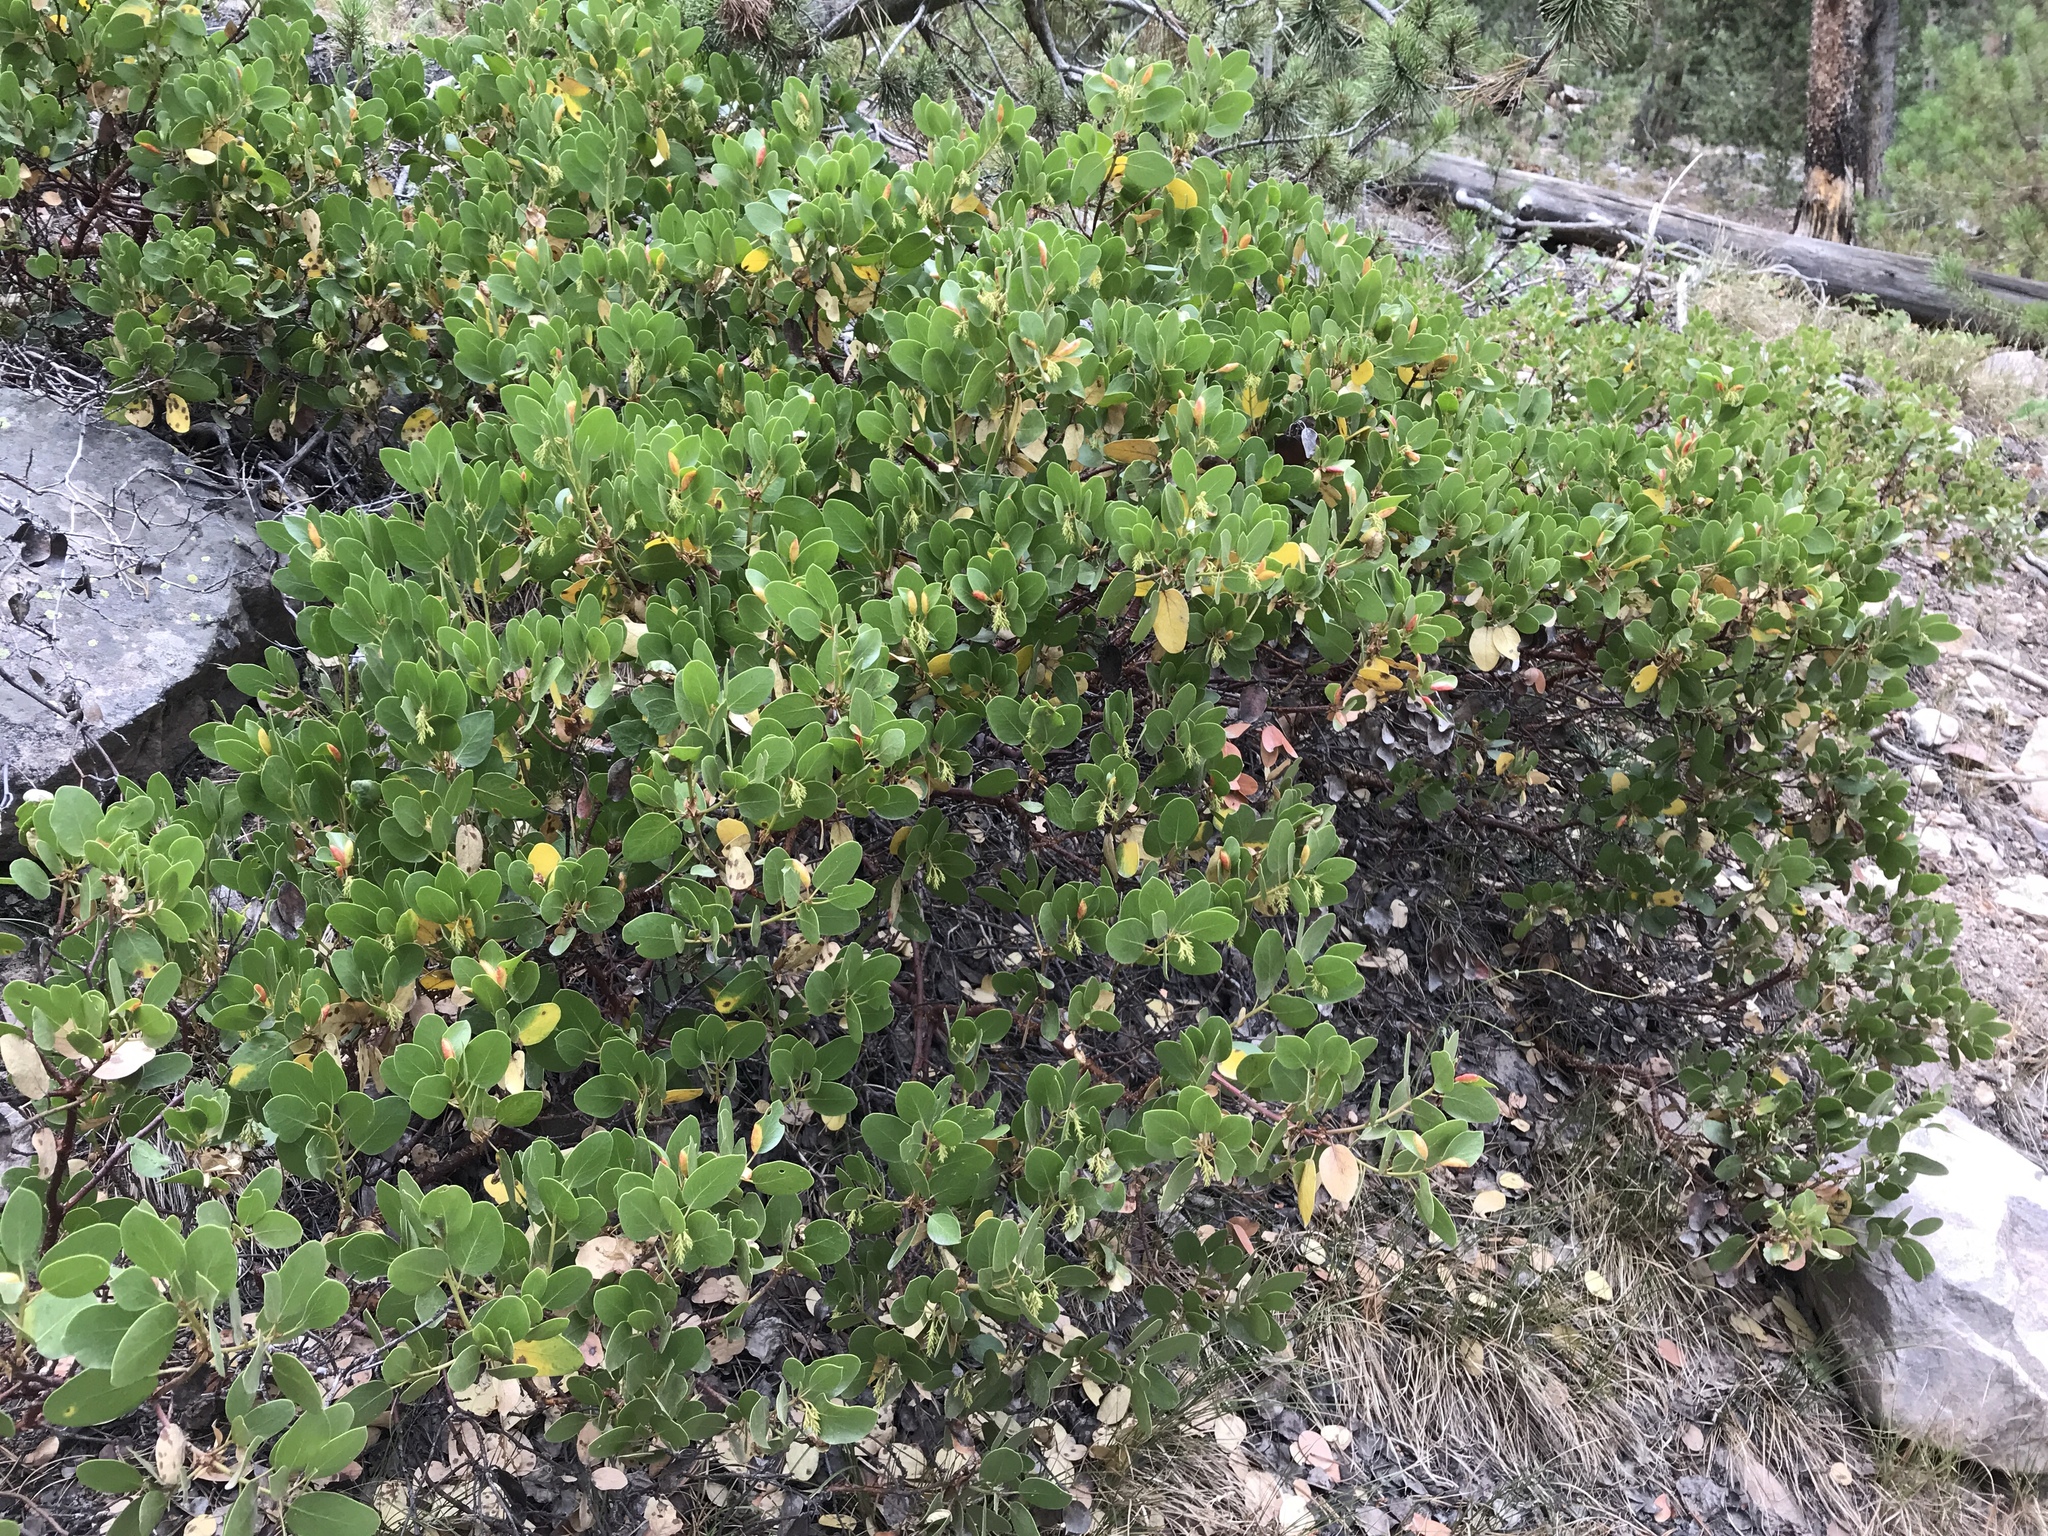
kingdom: Plantae
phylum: Tracheophyta
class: Magnoliopsida
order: Ericales
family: Ericaceae
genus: Arctostaphylos
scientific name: Arctostaphylos patula
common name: Green-leaf manzanita
